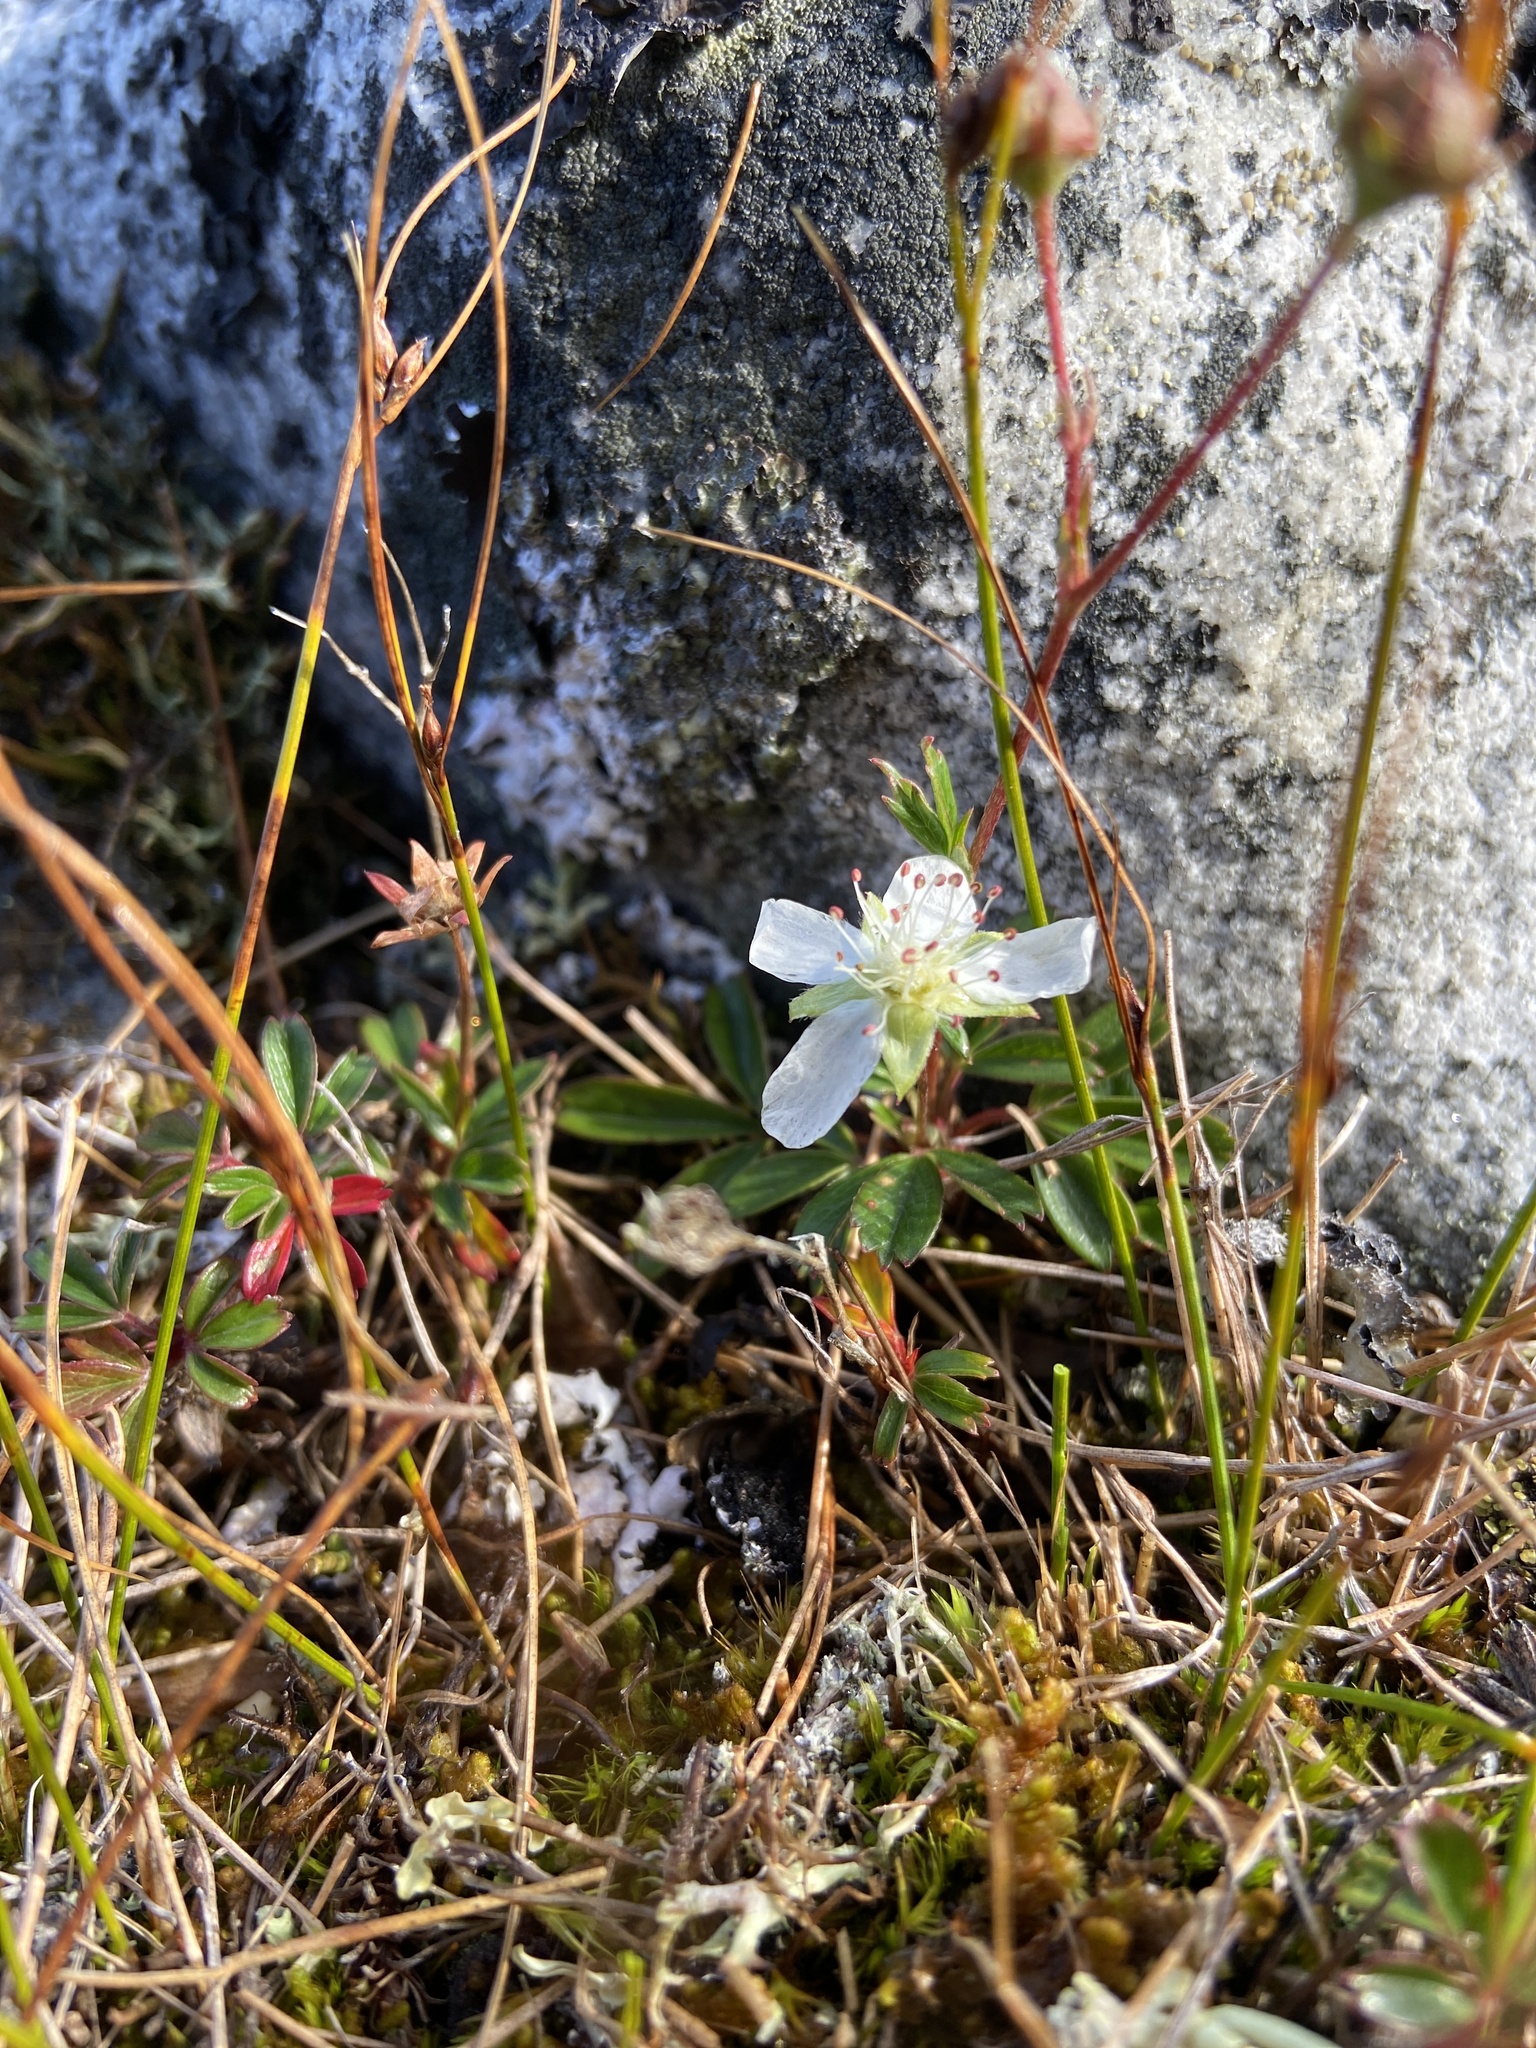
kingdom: Plantae
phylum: Tracheophyta
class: Magnoliopsida
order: Rosales
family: Rosaceae
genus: Sibbaldia
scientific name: Sibbaldia tridentata
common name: Three-toothed cinquefoil
